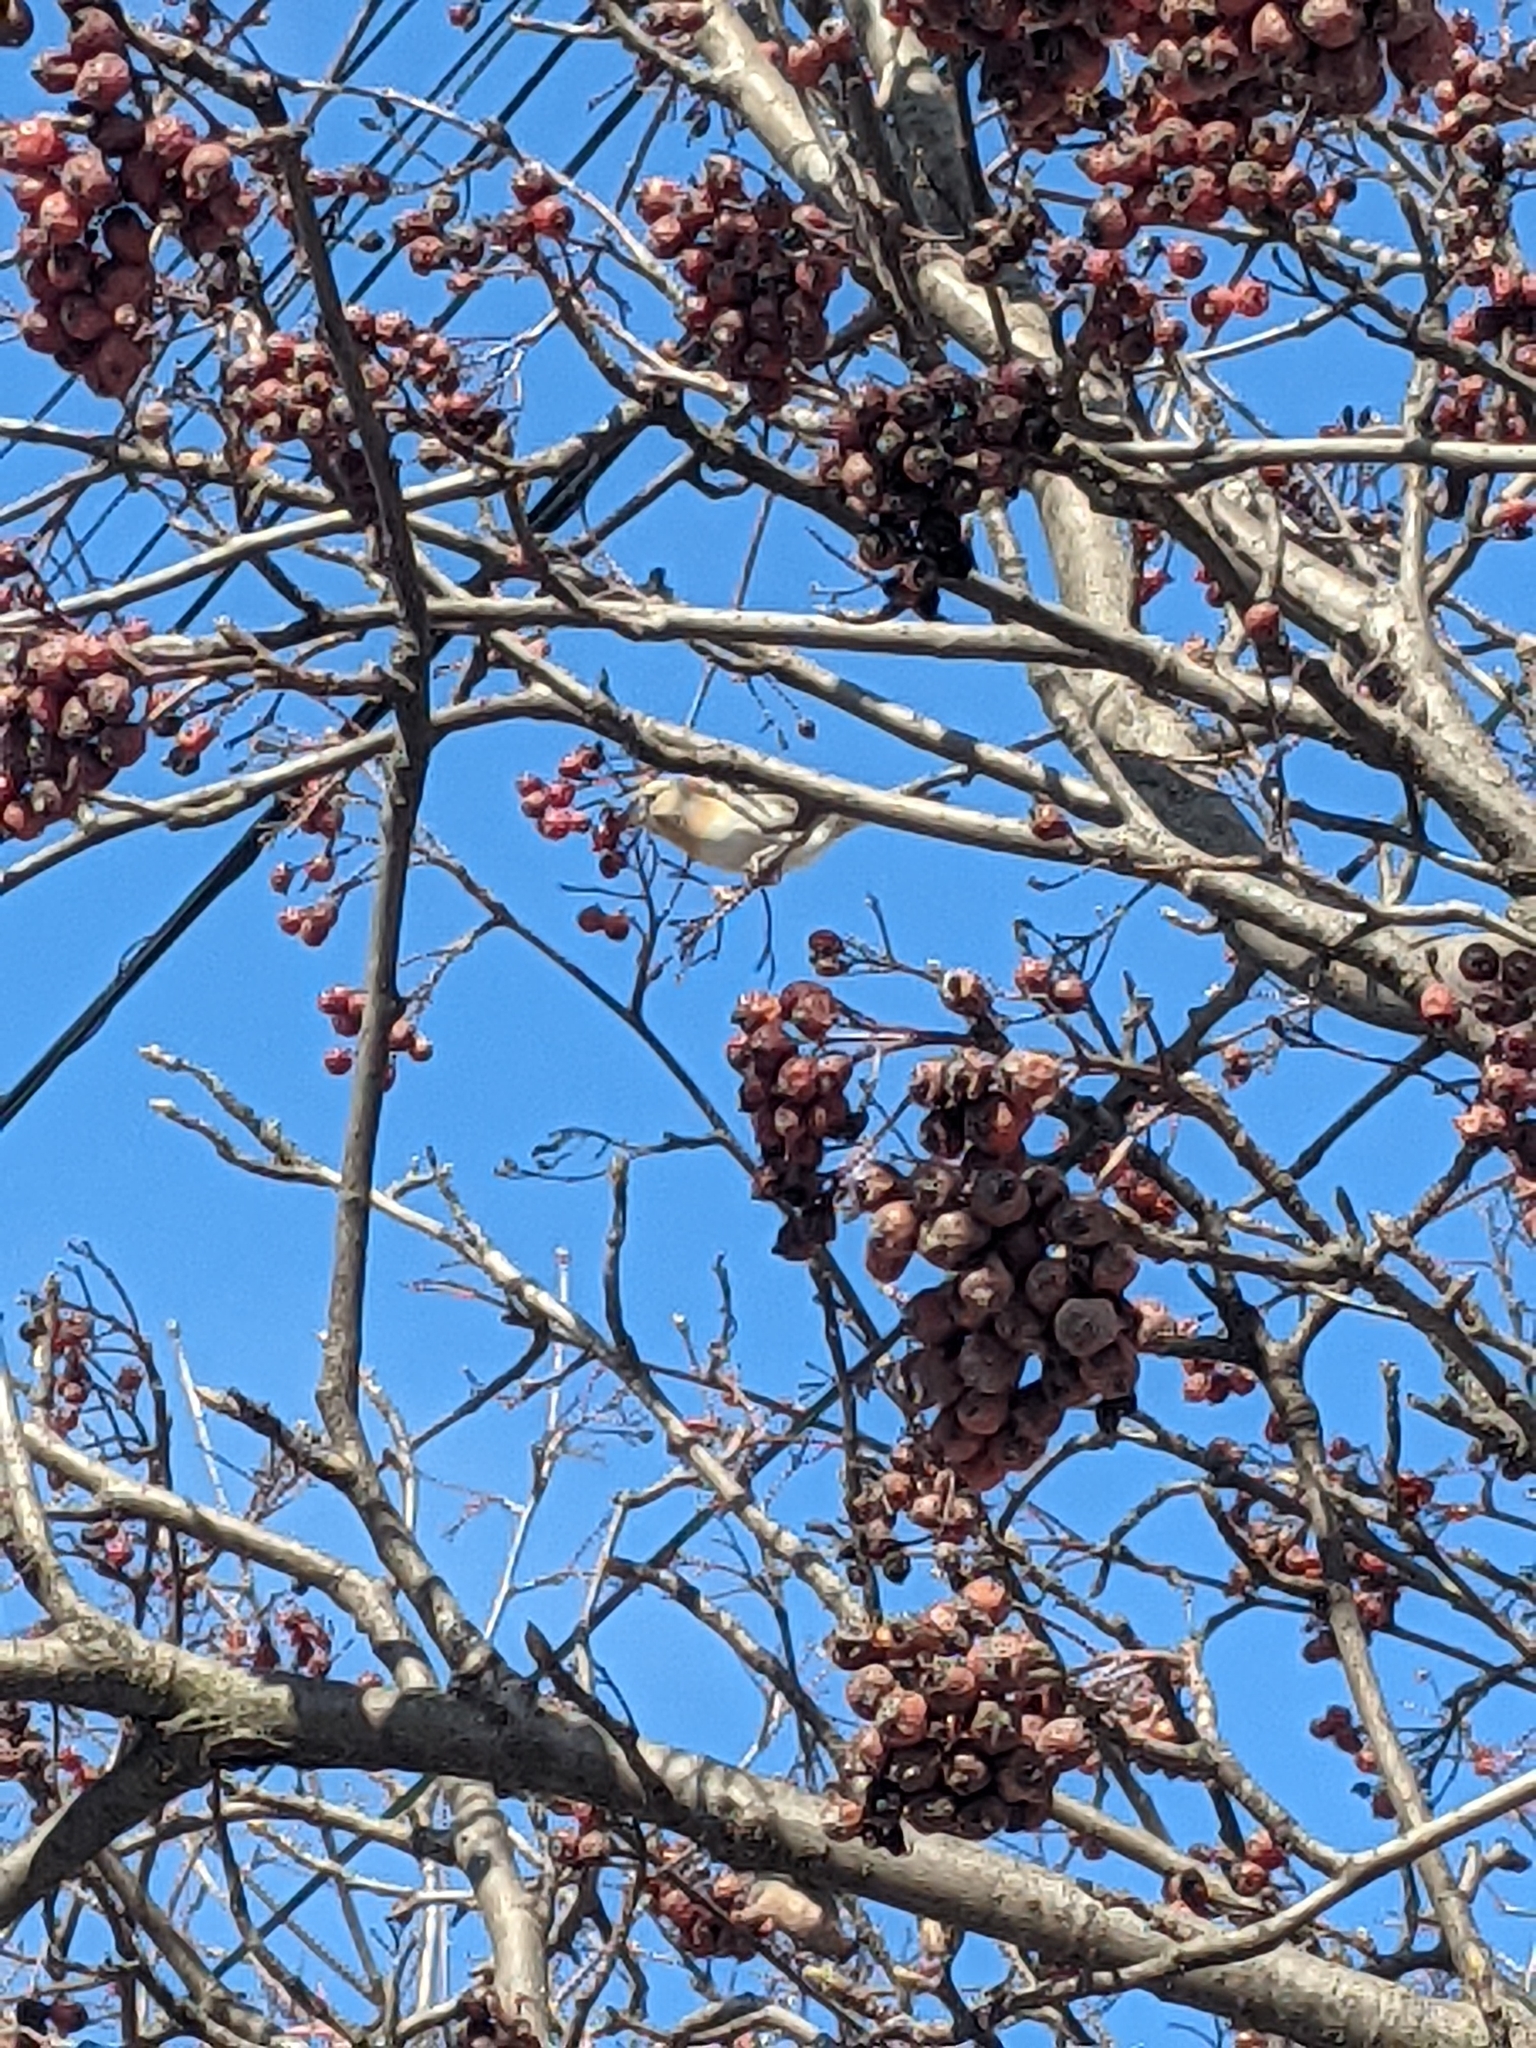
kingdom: Animalia
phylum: Chordata
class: Aves
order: Passeriformes
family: Fringillidae
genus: Fringilla
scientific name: Fringilla montifringilla
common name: Brambling
